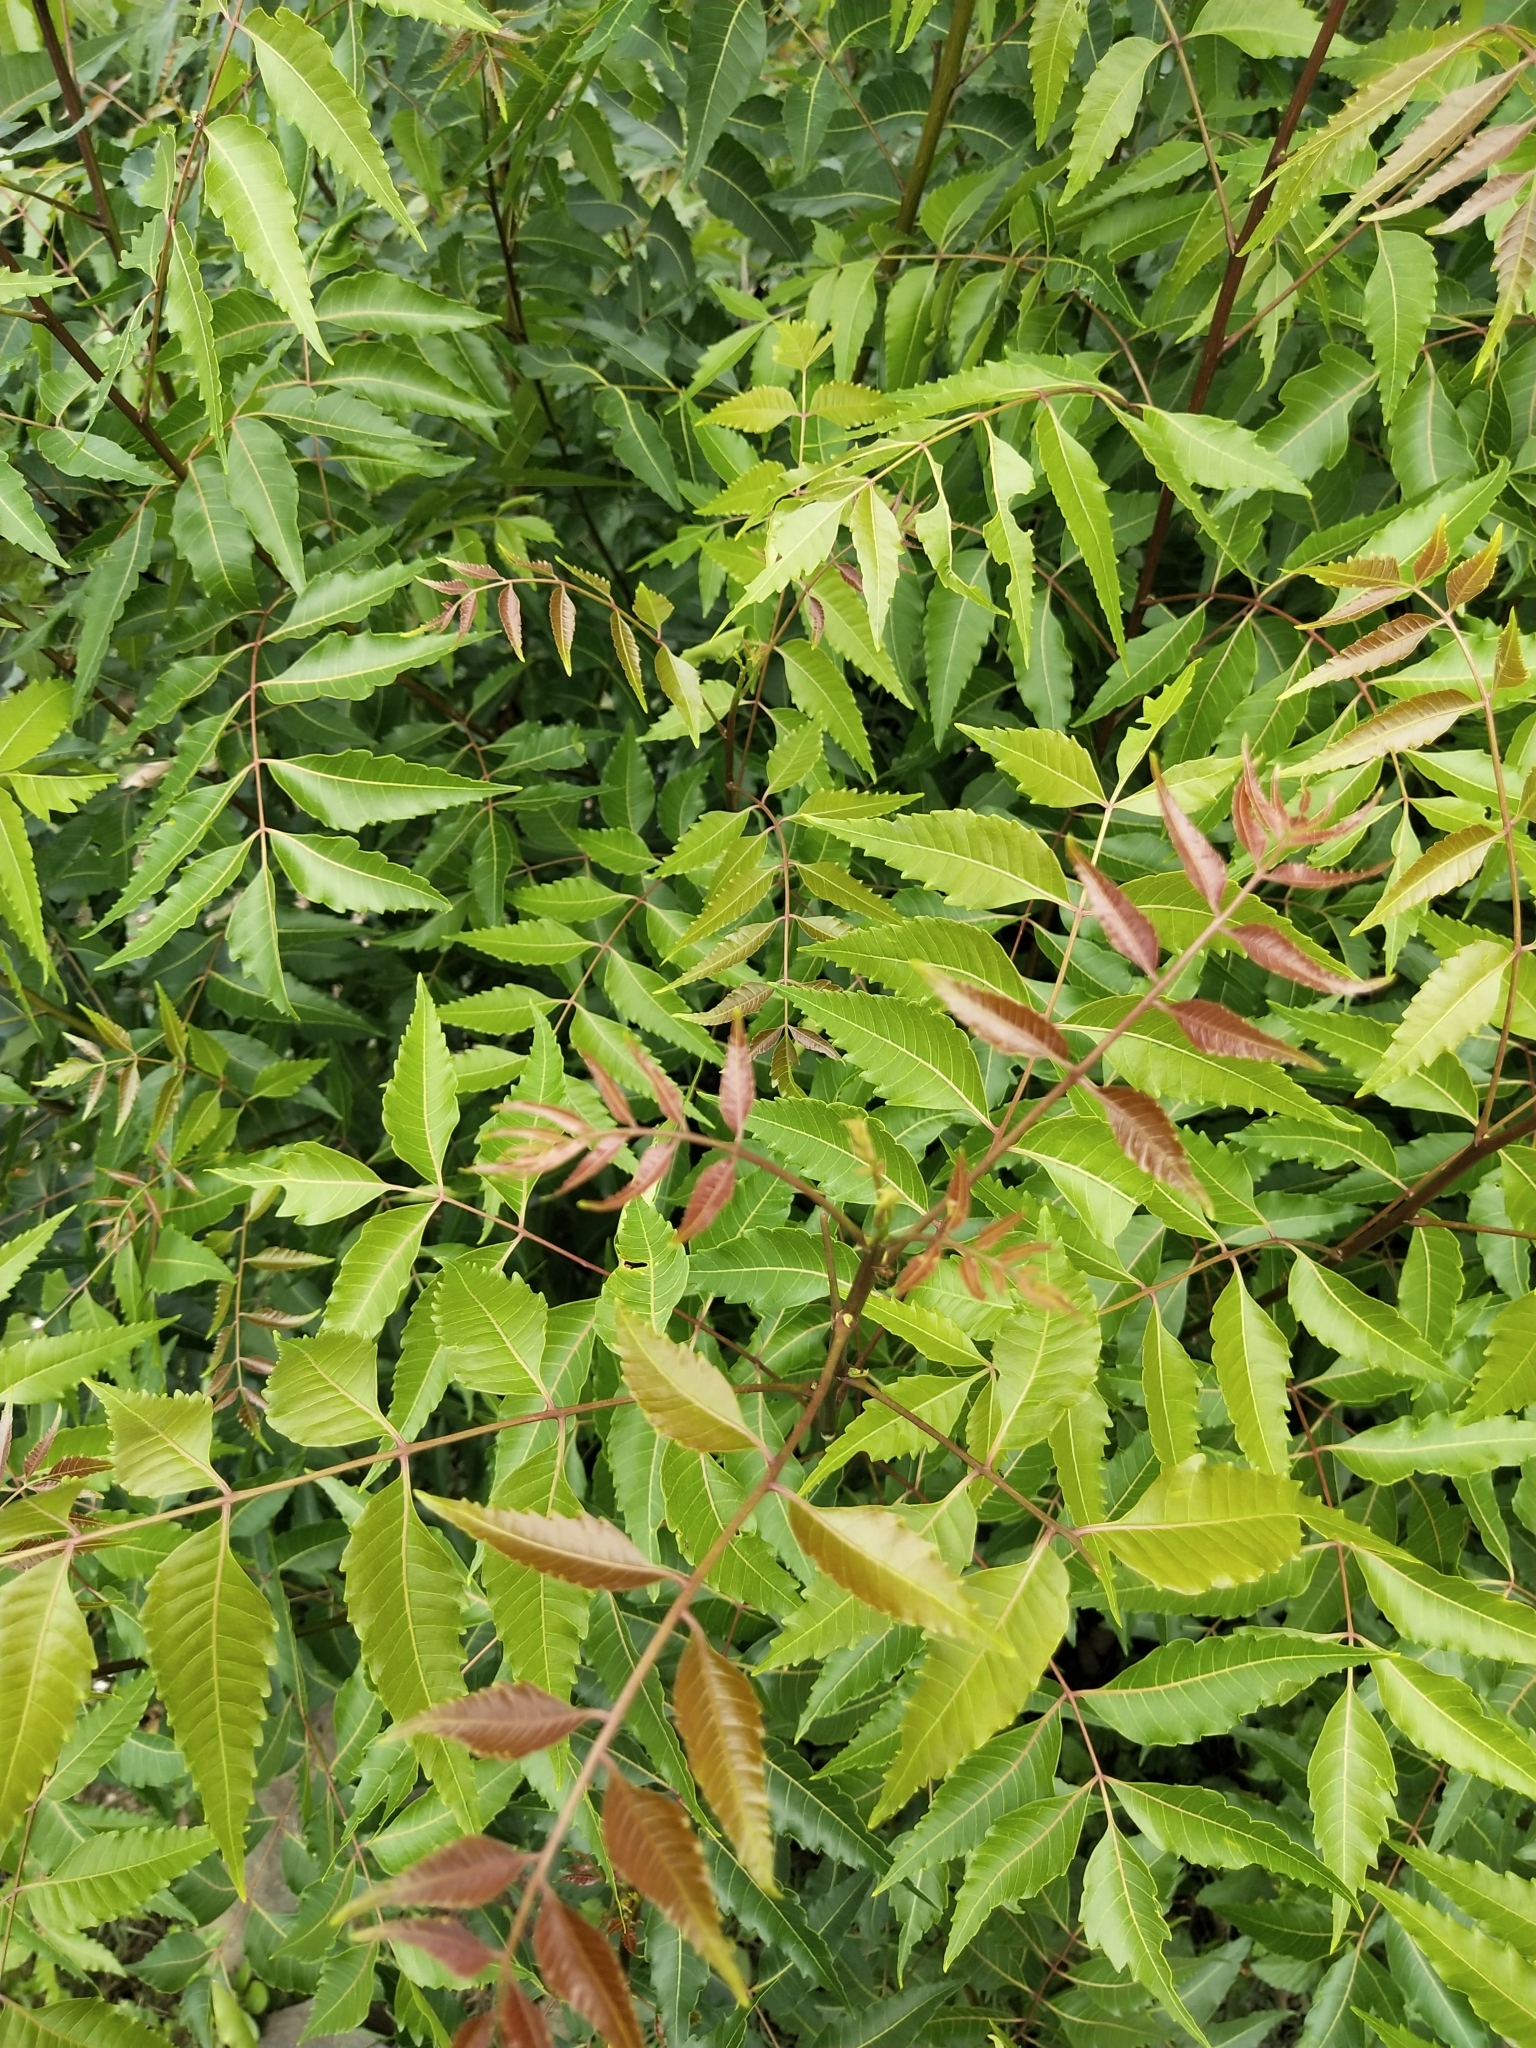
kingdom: Plantae
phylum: Tracheophyta
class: Magnoliopsida
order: Sapindales
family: Meliaceae
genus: Azadirachta
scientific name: Azadirachta indica
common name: Neem
